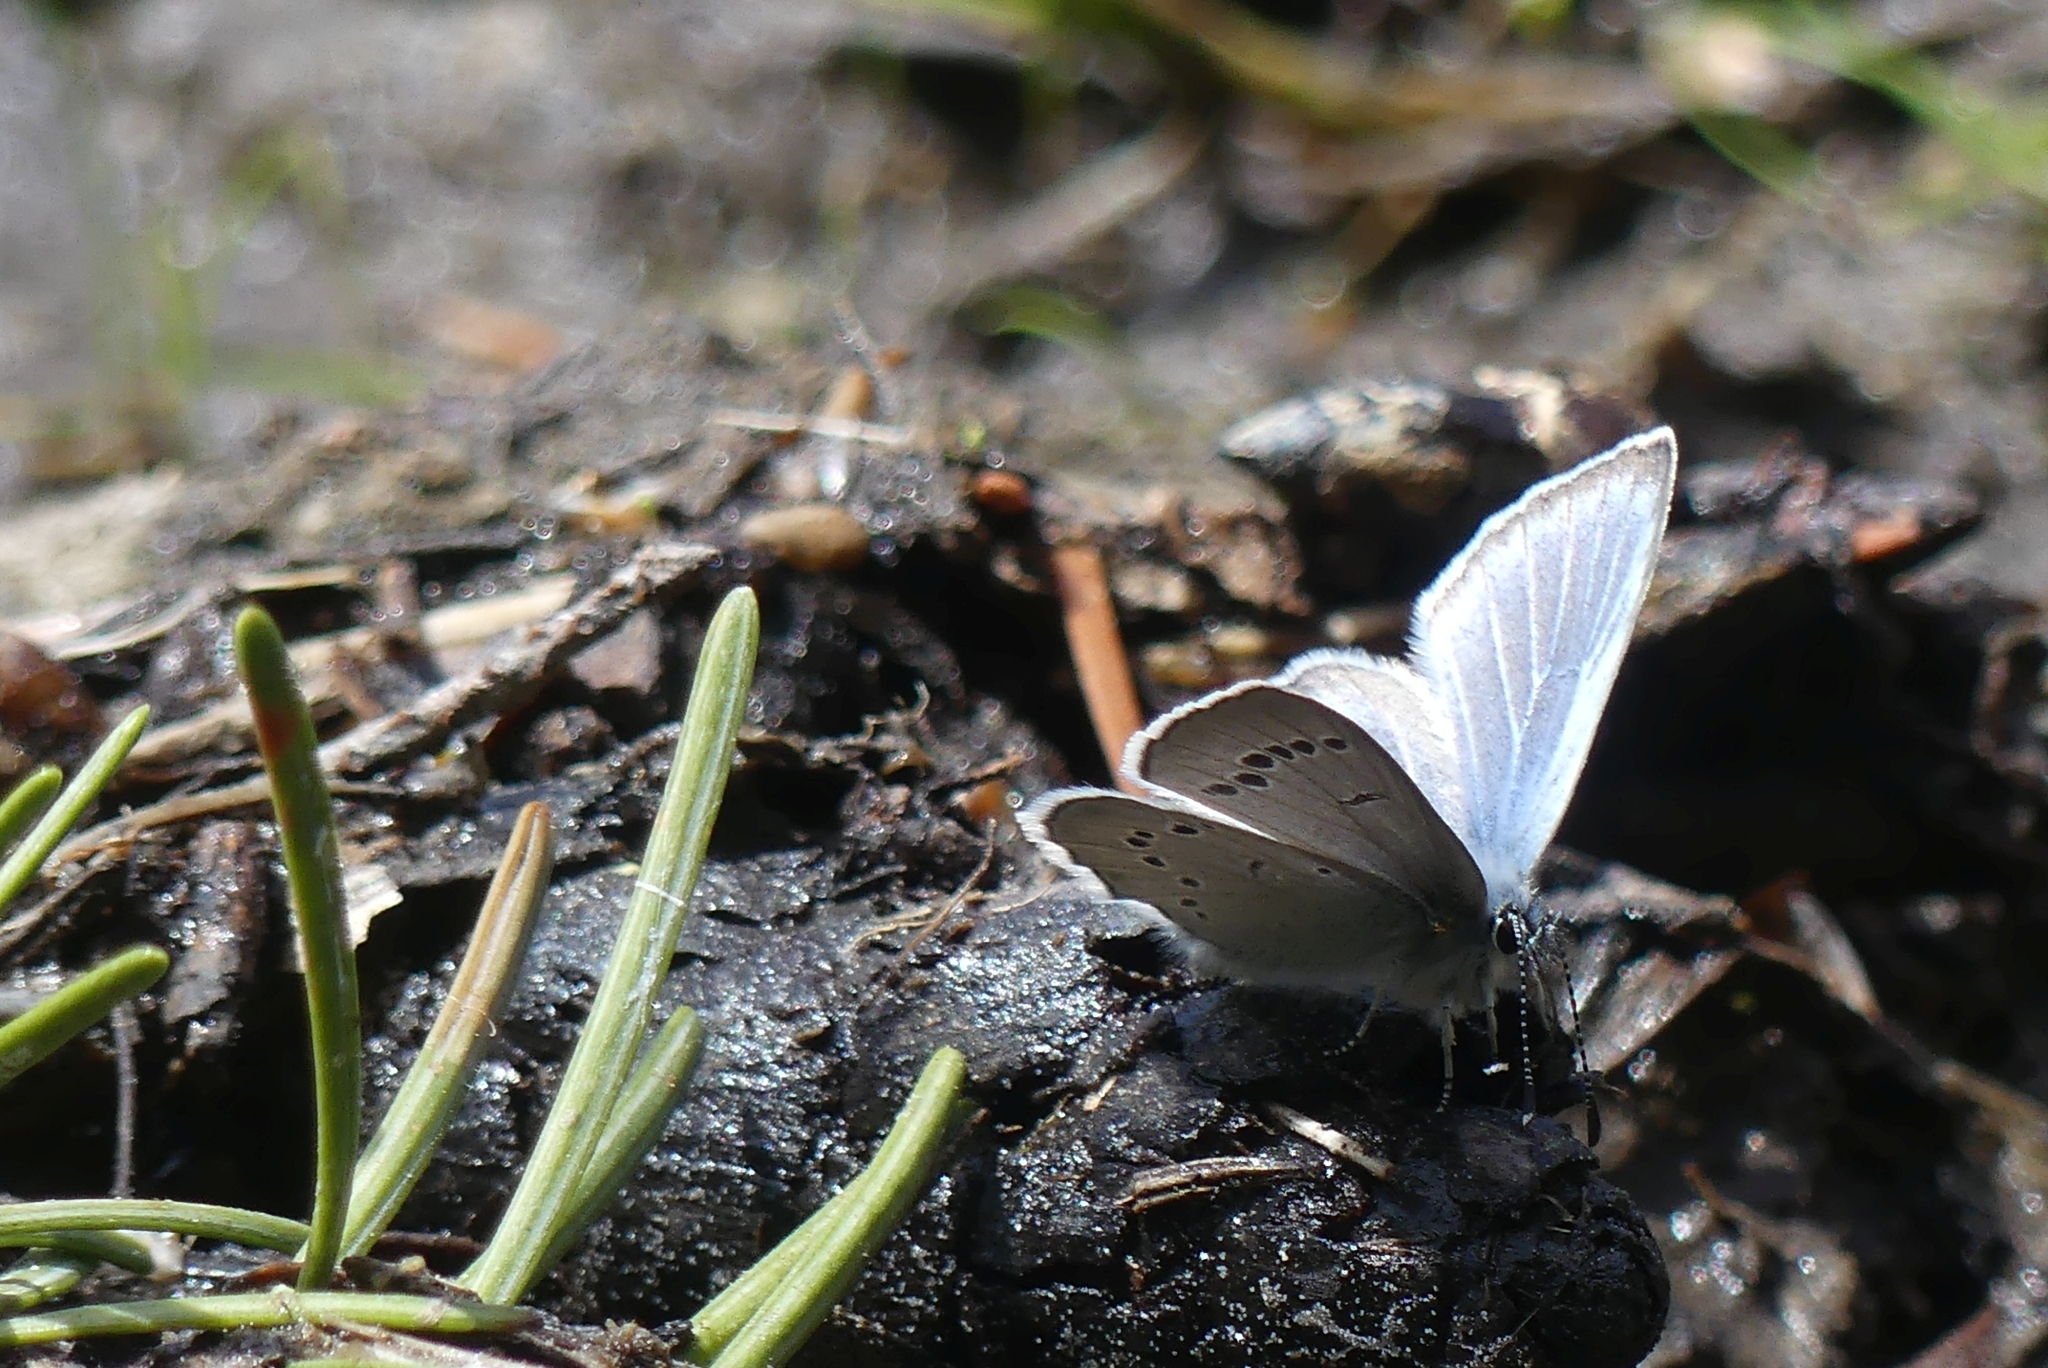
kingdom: Animalia
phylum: Arthropoda
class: Insecta
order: Lepidoptera
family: Lycaenidae
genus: Glaucopsyche
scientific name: Glaucopsyche lygdamus
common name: Silvery blue
